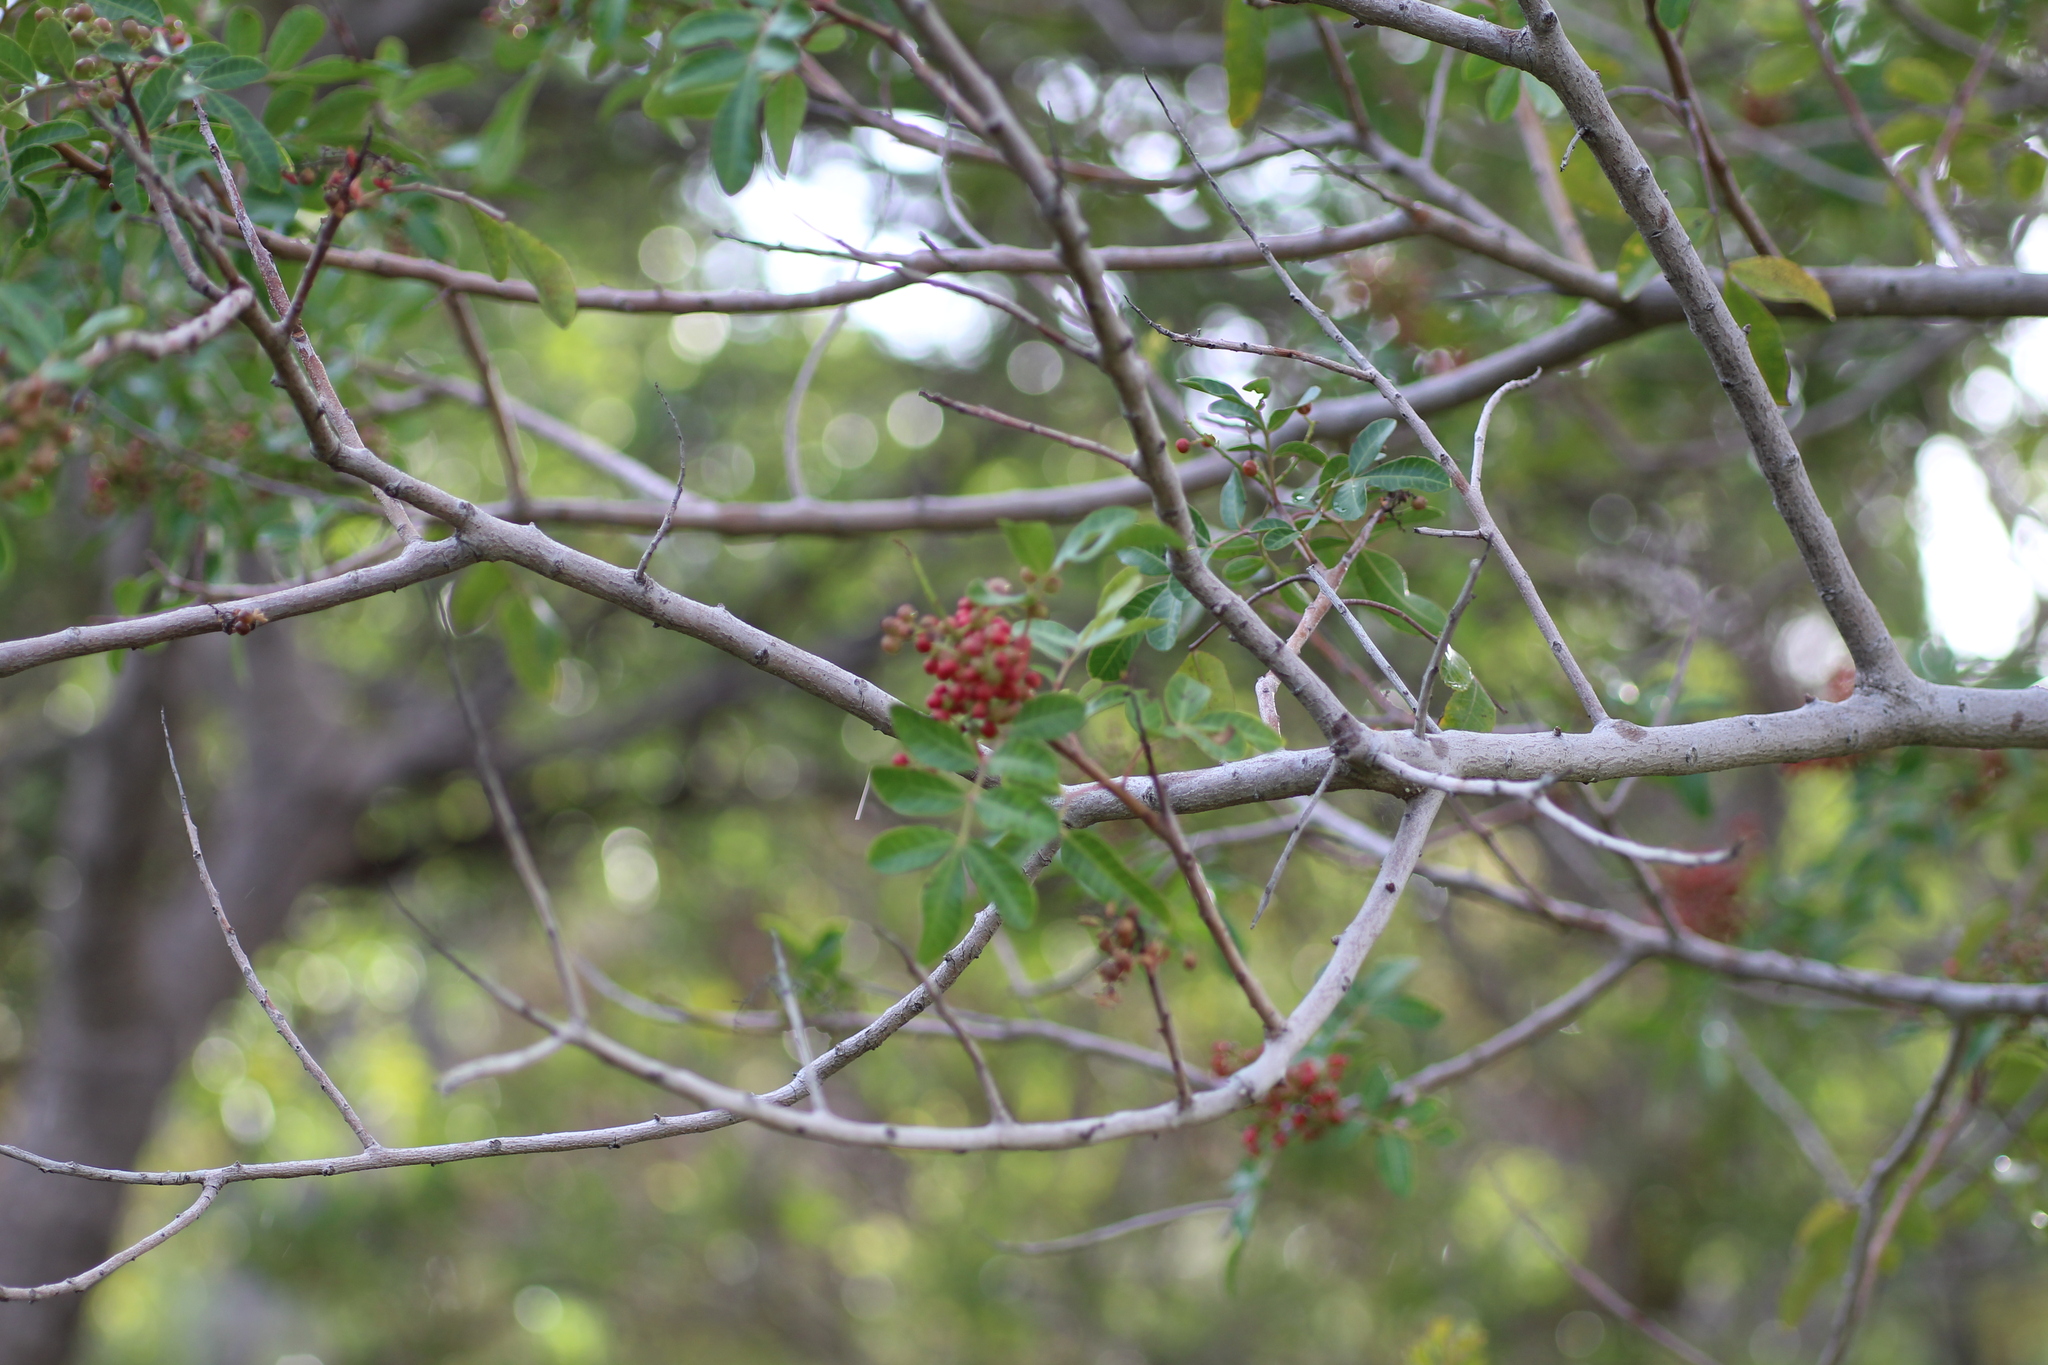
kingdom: Plantae
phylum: Tracheophyta
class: Magnoliopsida
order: Sapindales
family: Anacardiaceae
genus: Schinus
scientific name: Schinus terebinthifolia
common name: Brazilian peppertree
